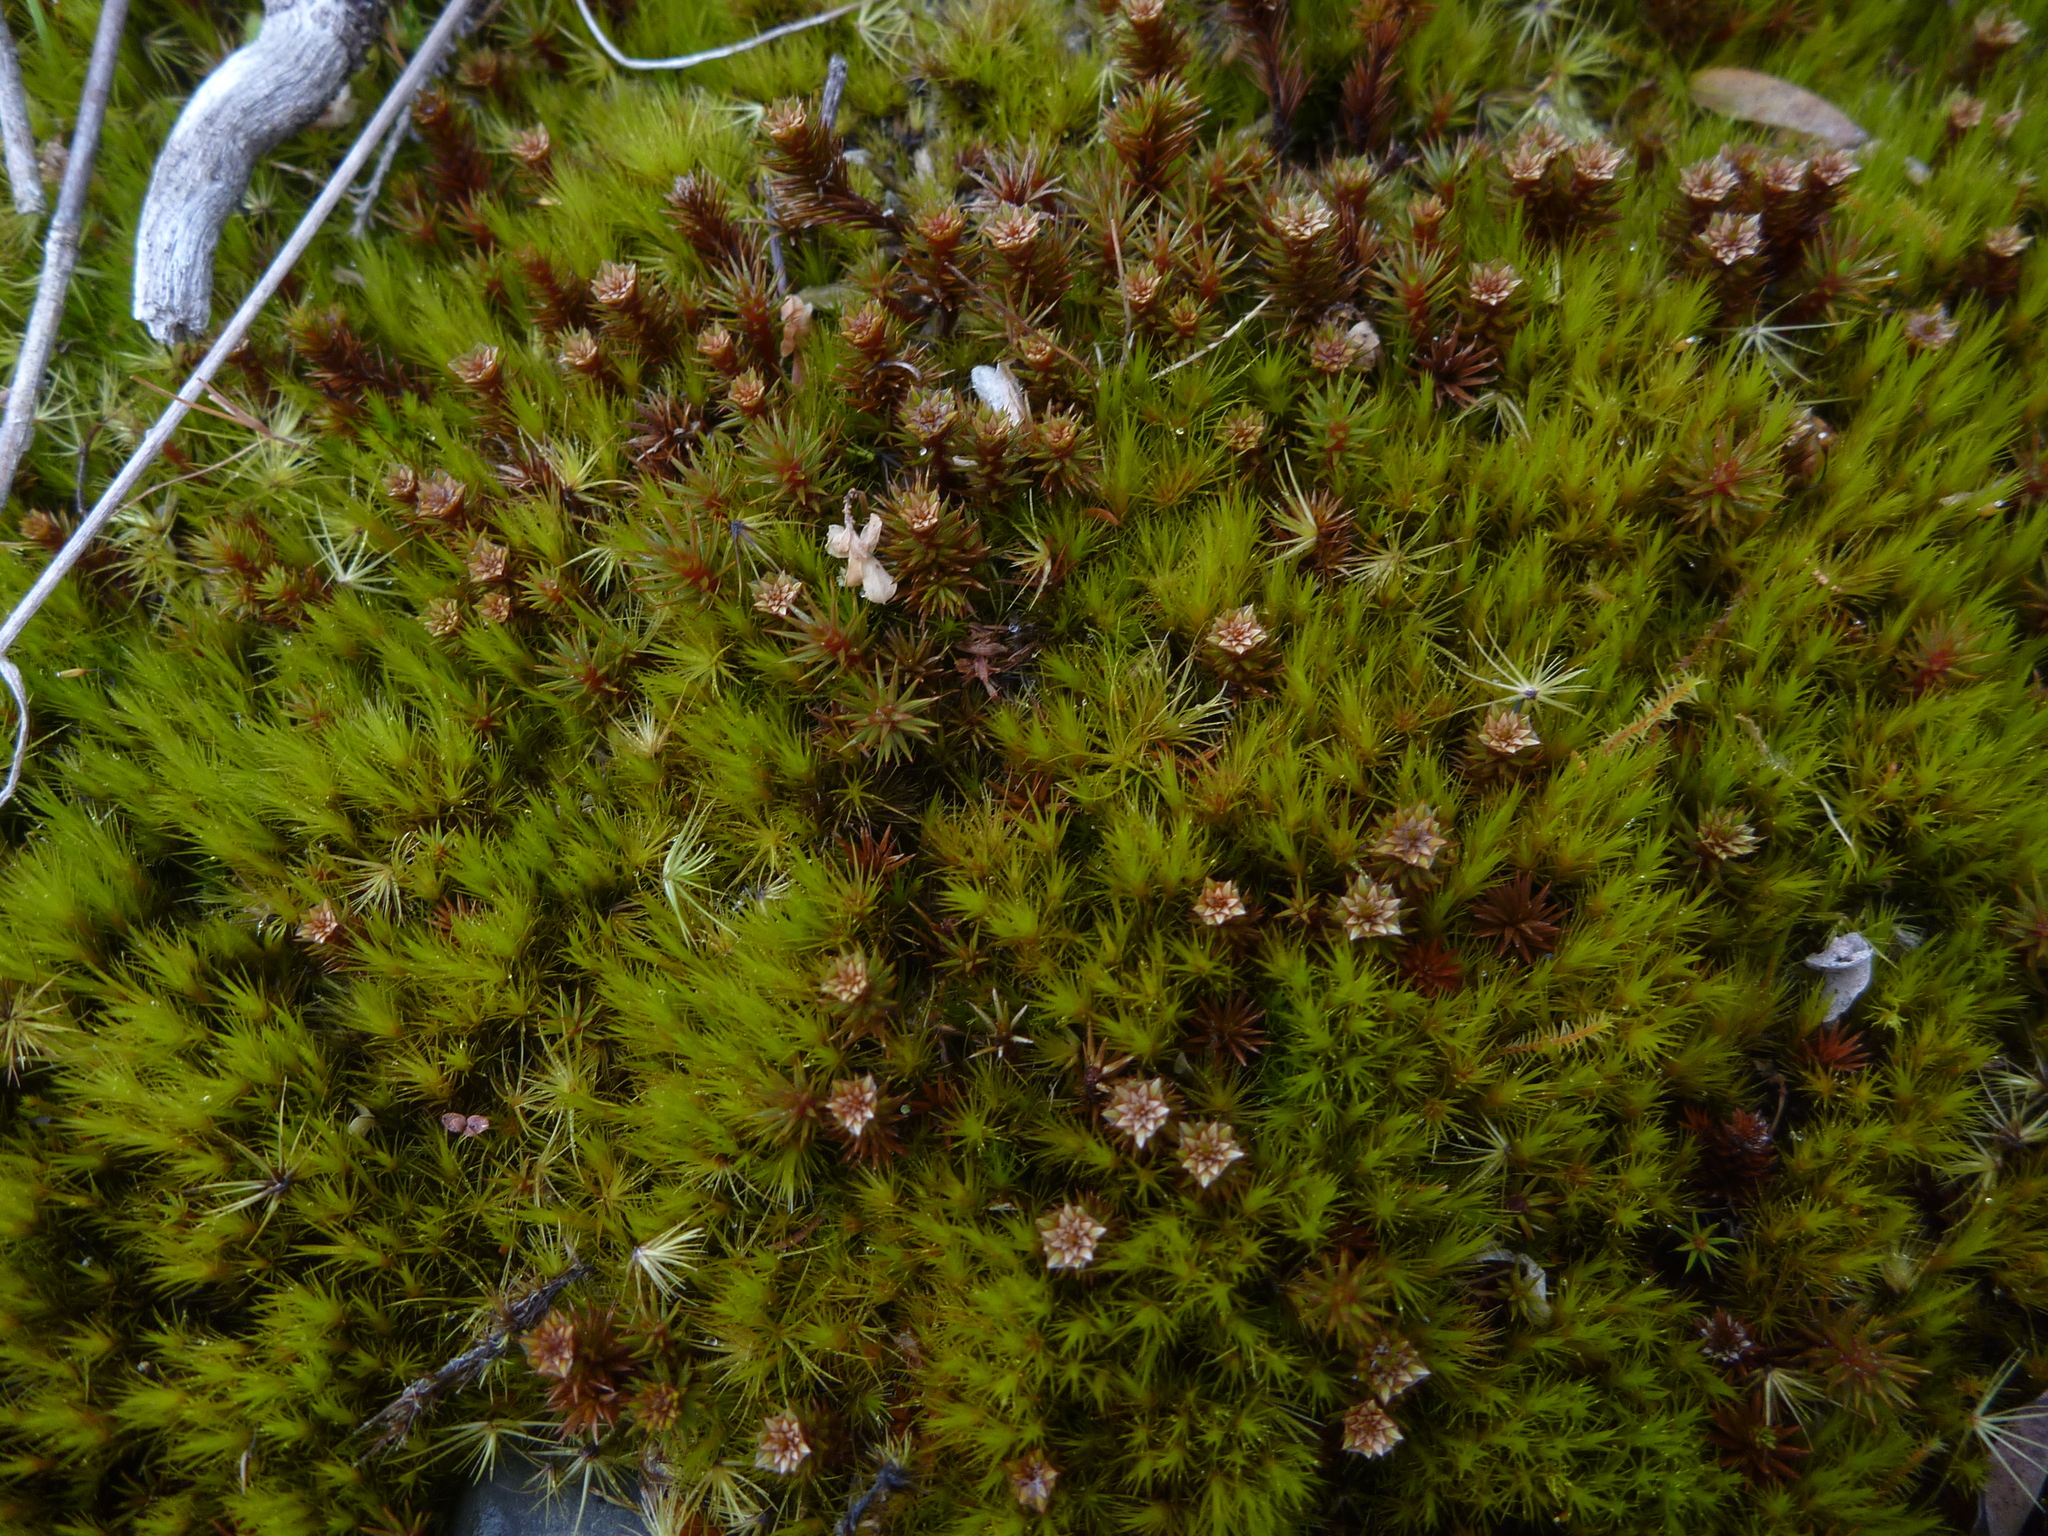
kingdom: Plantae
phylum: Bryophyta
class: Bryopsida
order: Dicranales
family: Leucobryaceae
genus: Campylopus
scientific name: Campylopus clavatus
